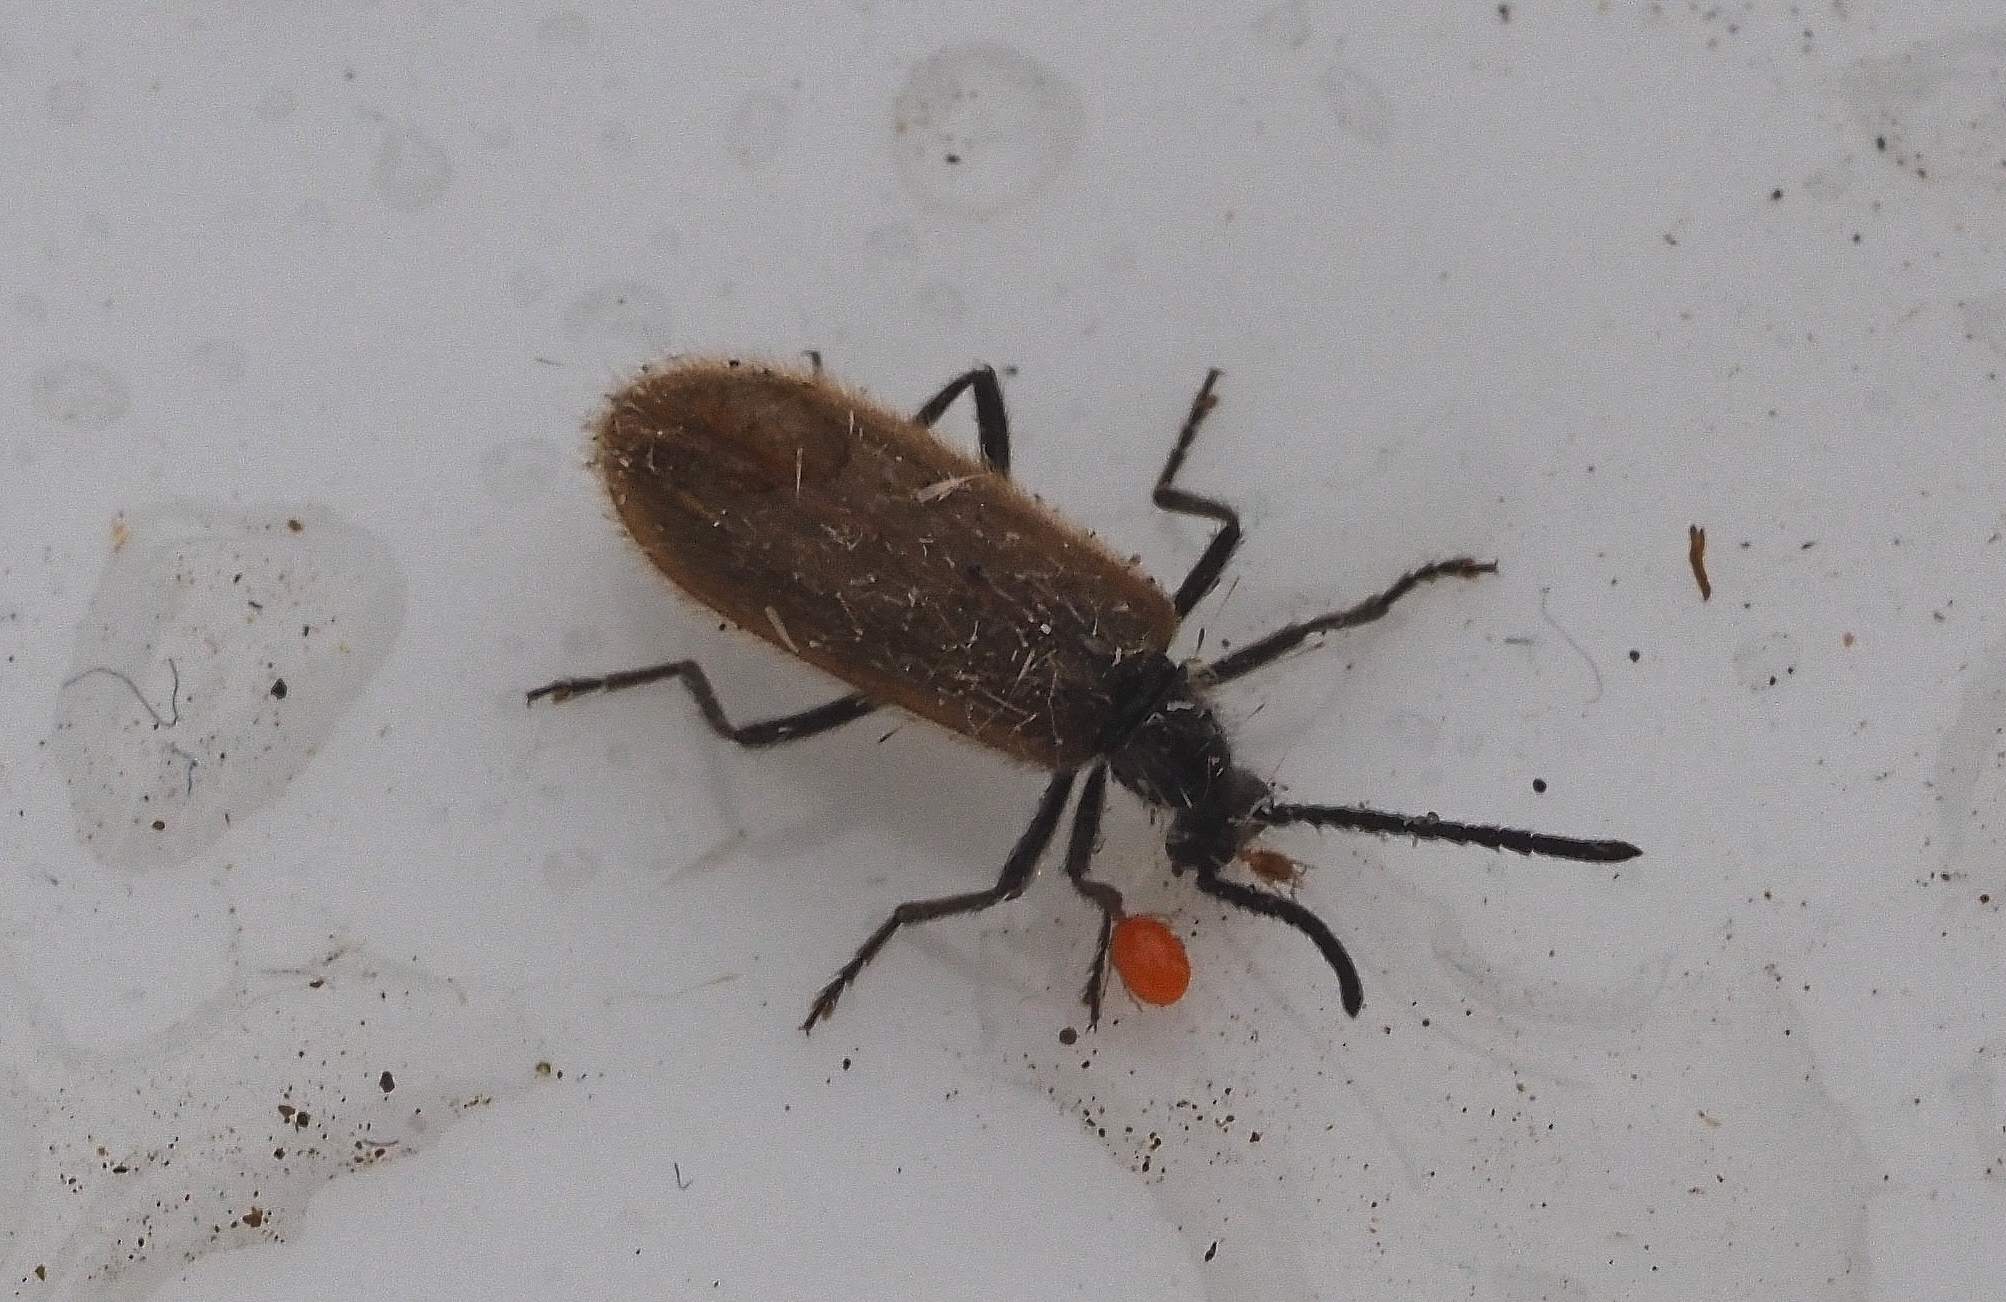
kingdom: Animalia
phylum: Arthropoda
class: Insecta
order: Coleoptera
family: Tenebrionidae
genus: Lagria
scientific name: Lagria hirta
